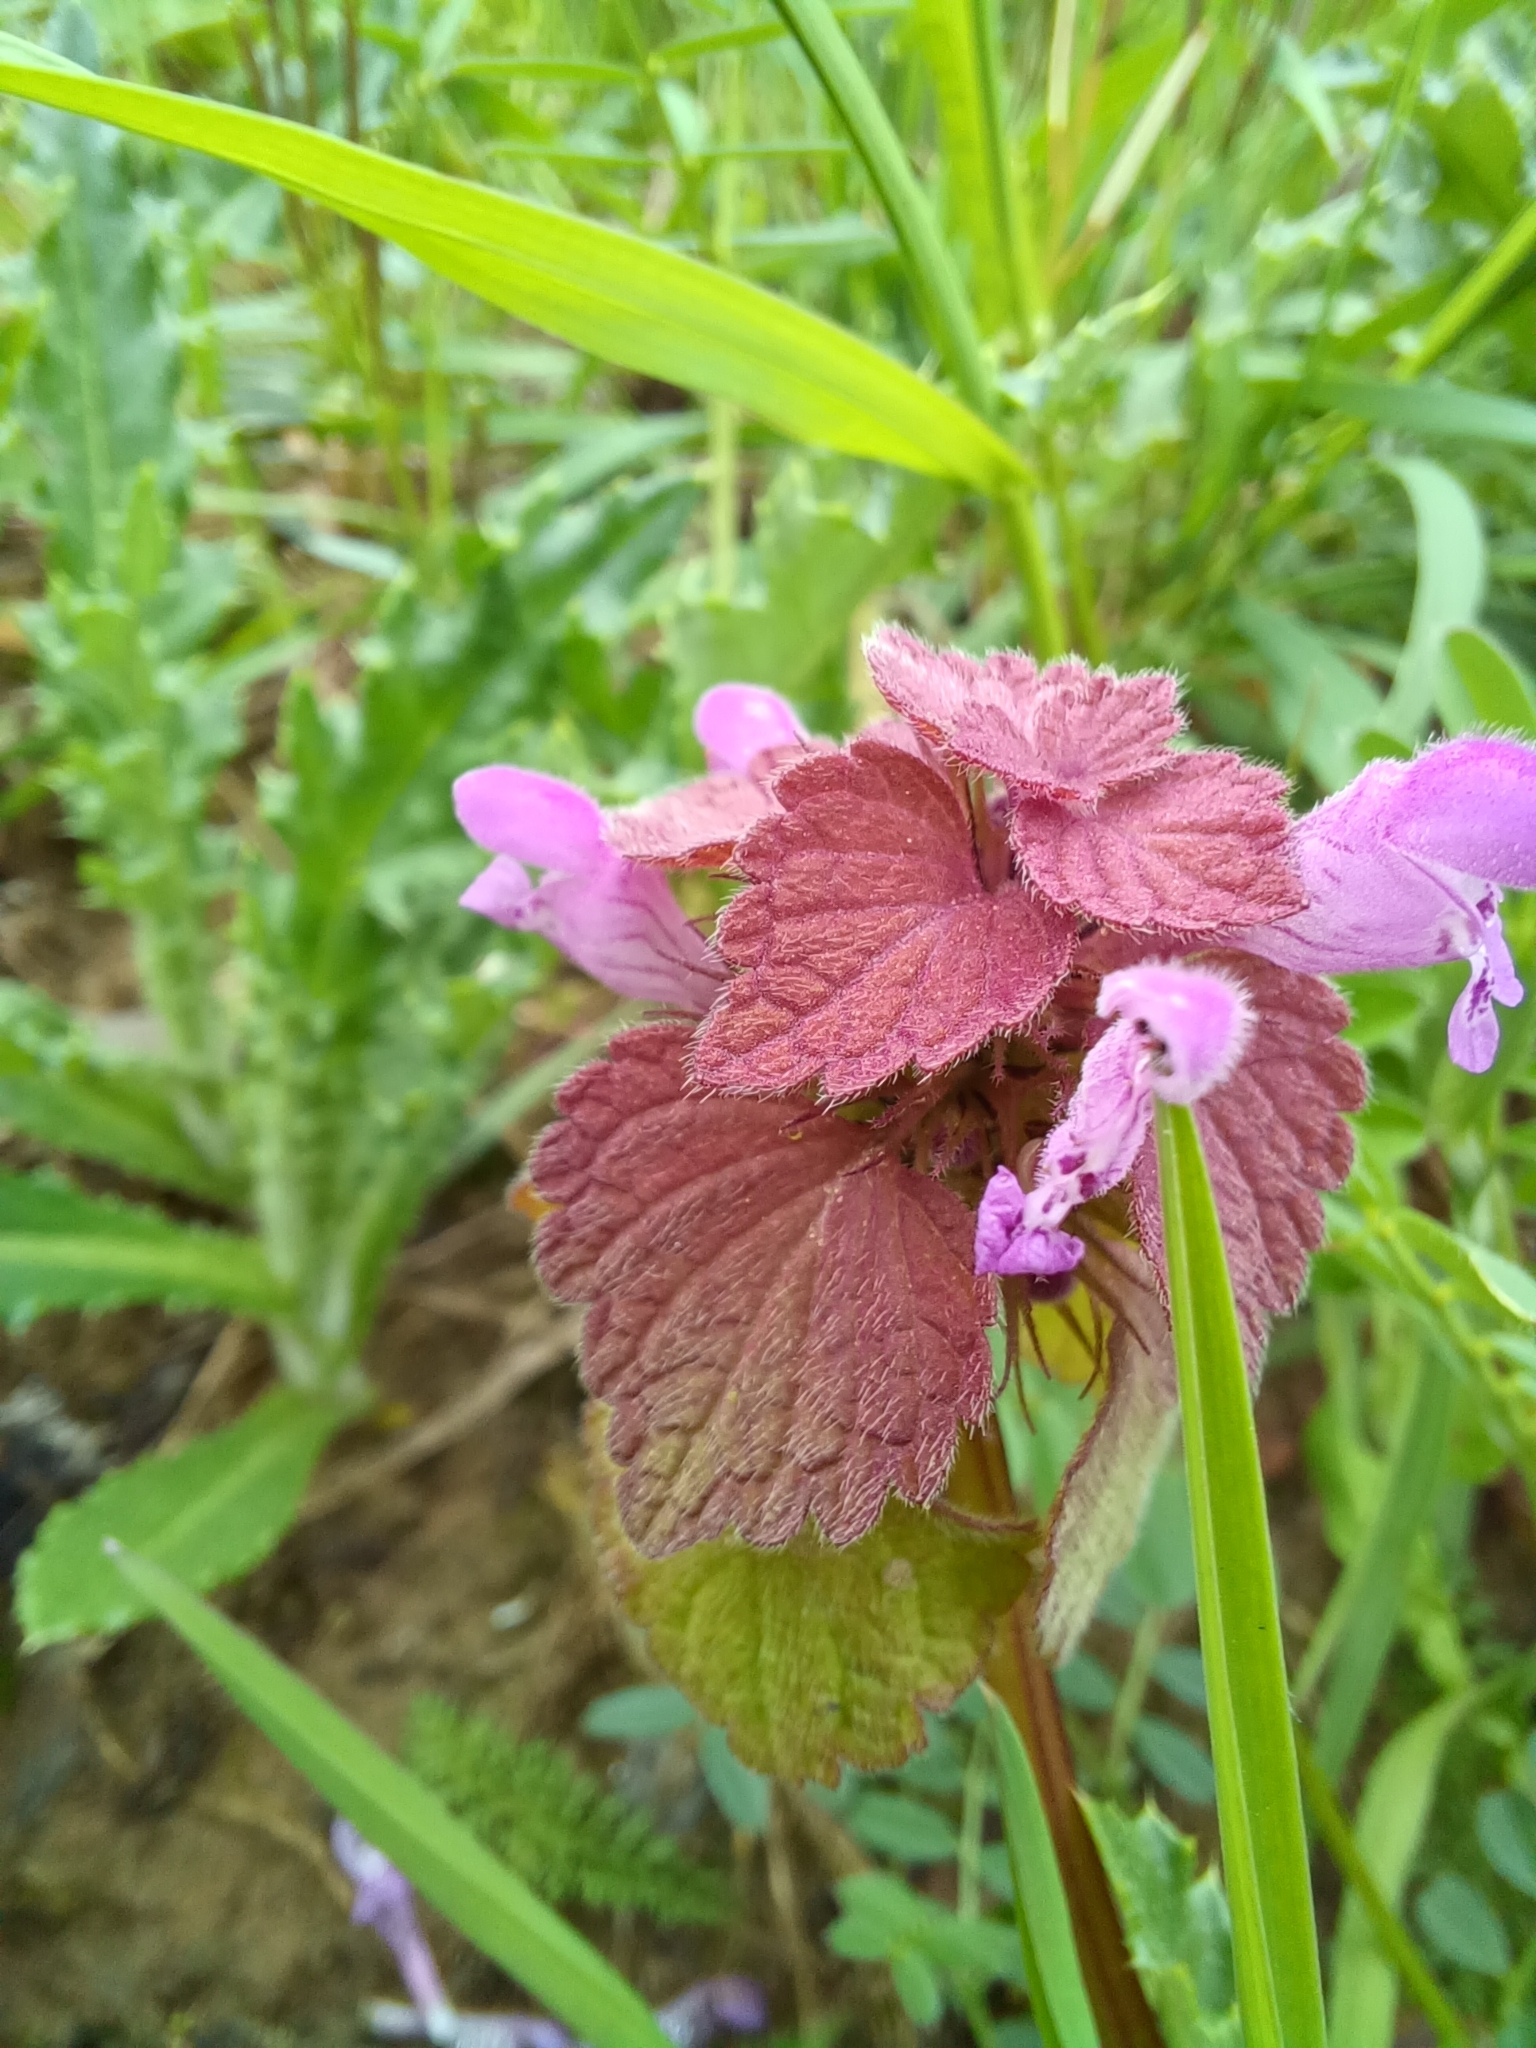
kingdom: Plantae
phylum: Tracheophyta
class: Magnoliopsida
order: Lamiales
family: Lamiaceae
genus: Lamium
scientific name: Lamium purpureum
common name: Red dead-nettle
